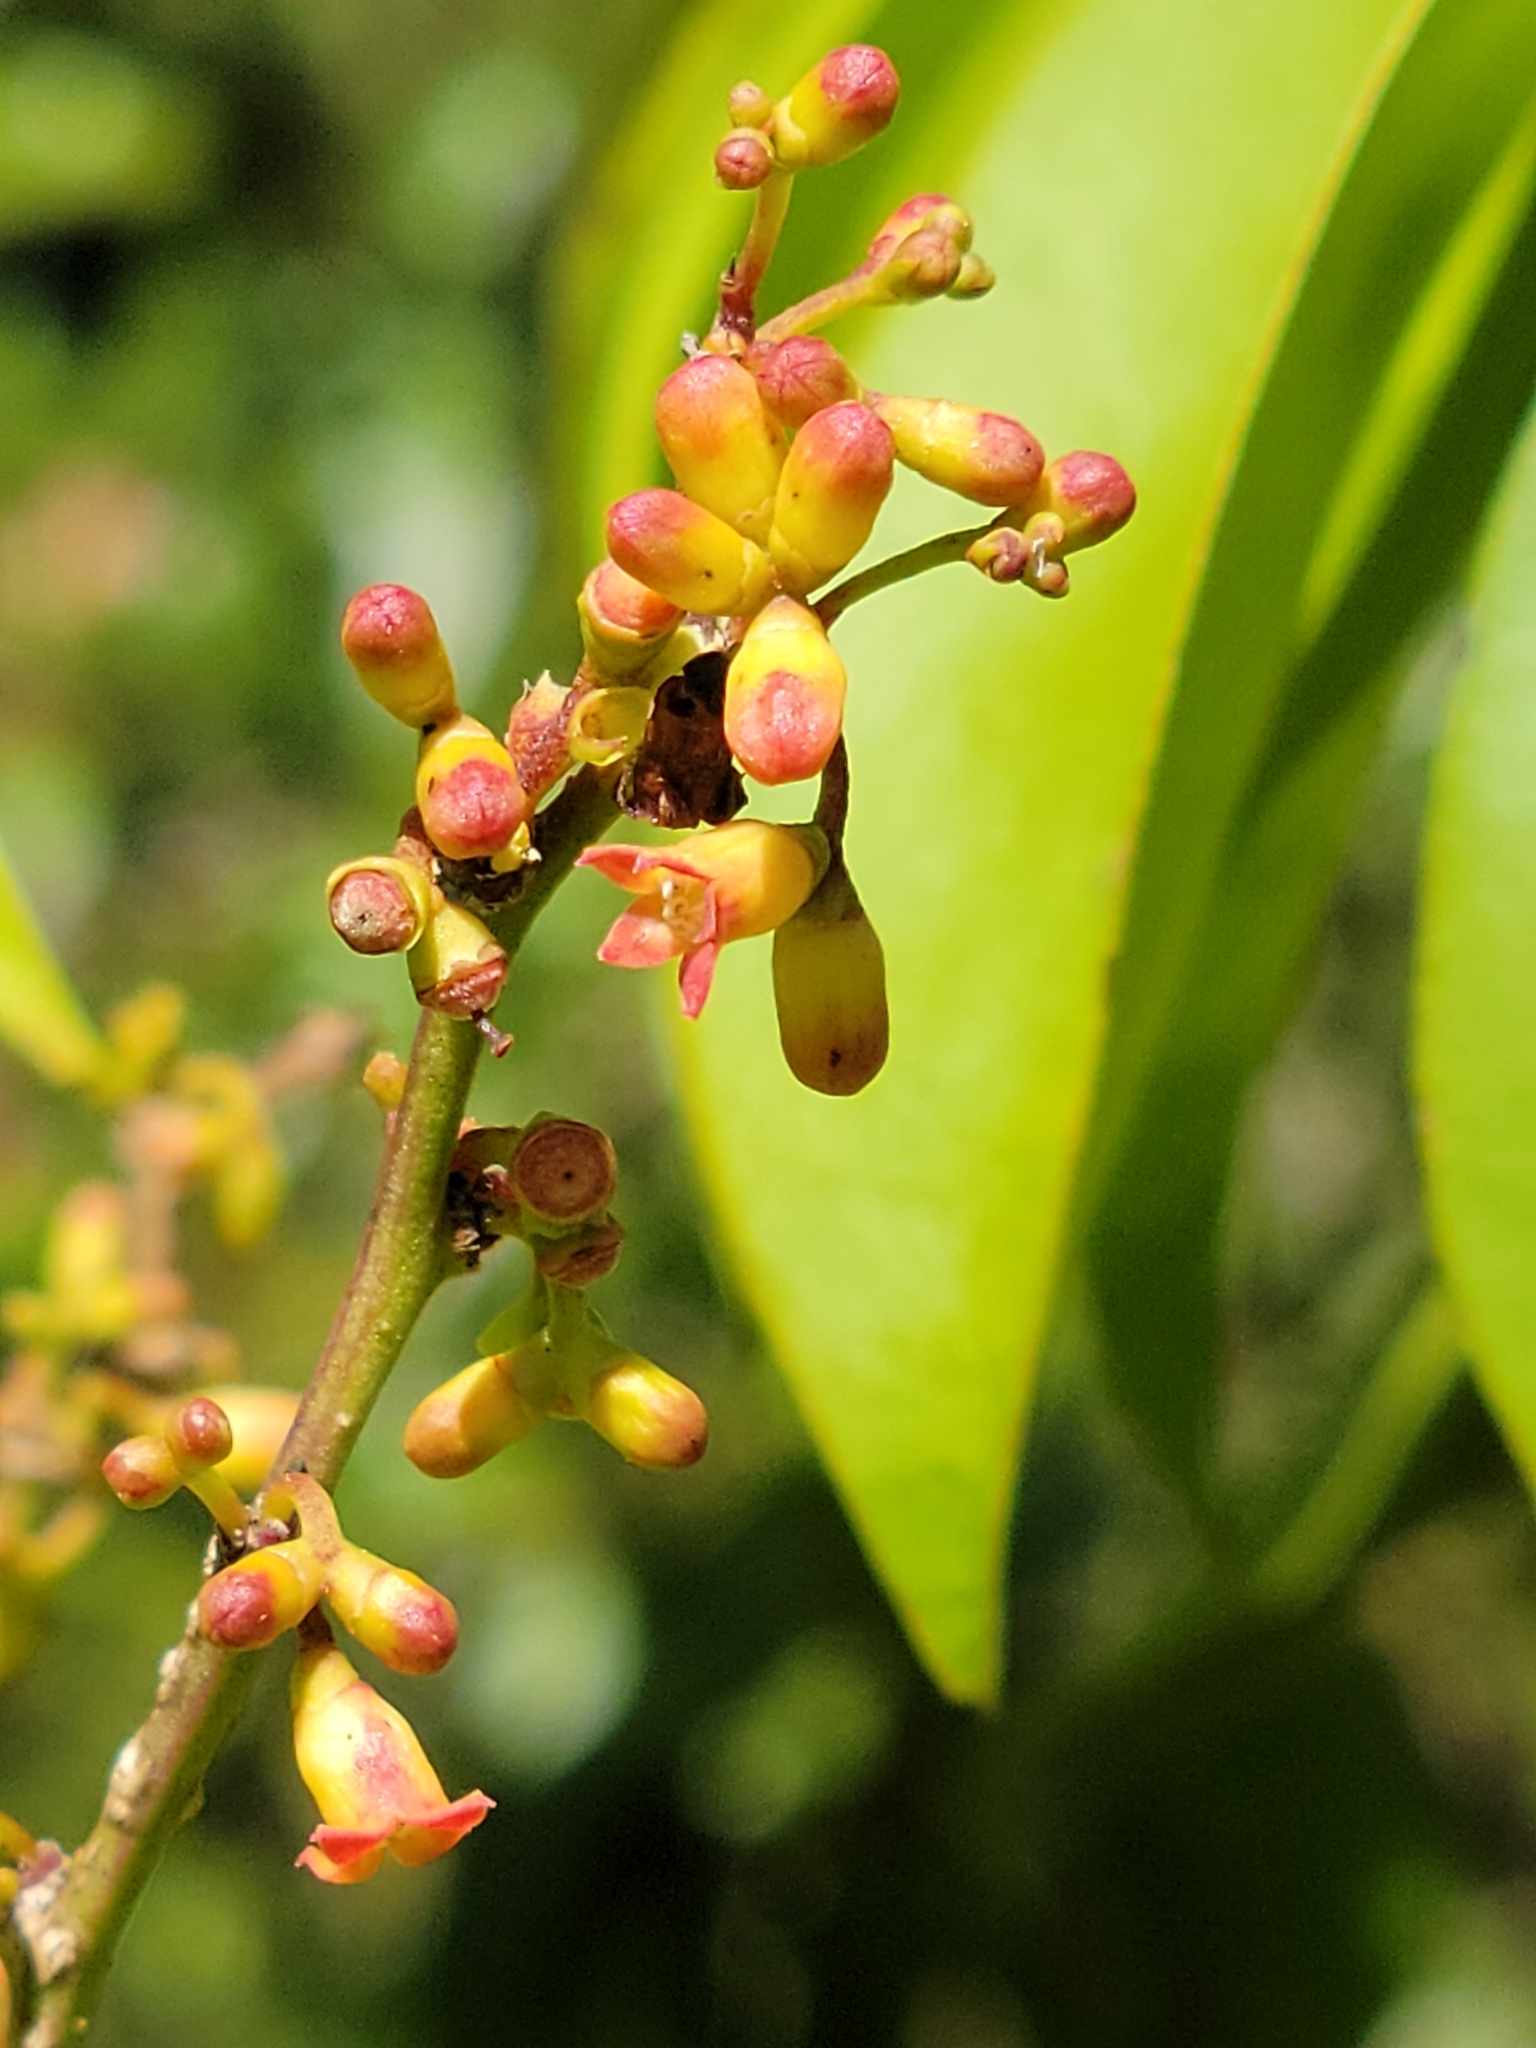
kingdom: Plantae
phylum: Tracheophyta
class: Magnoliopsida
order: Santalales
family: Schoepfiaceae
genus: Schoepfia
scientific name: Schoepfia schreberi
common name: Gulf graytwig
